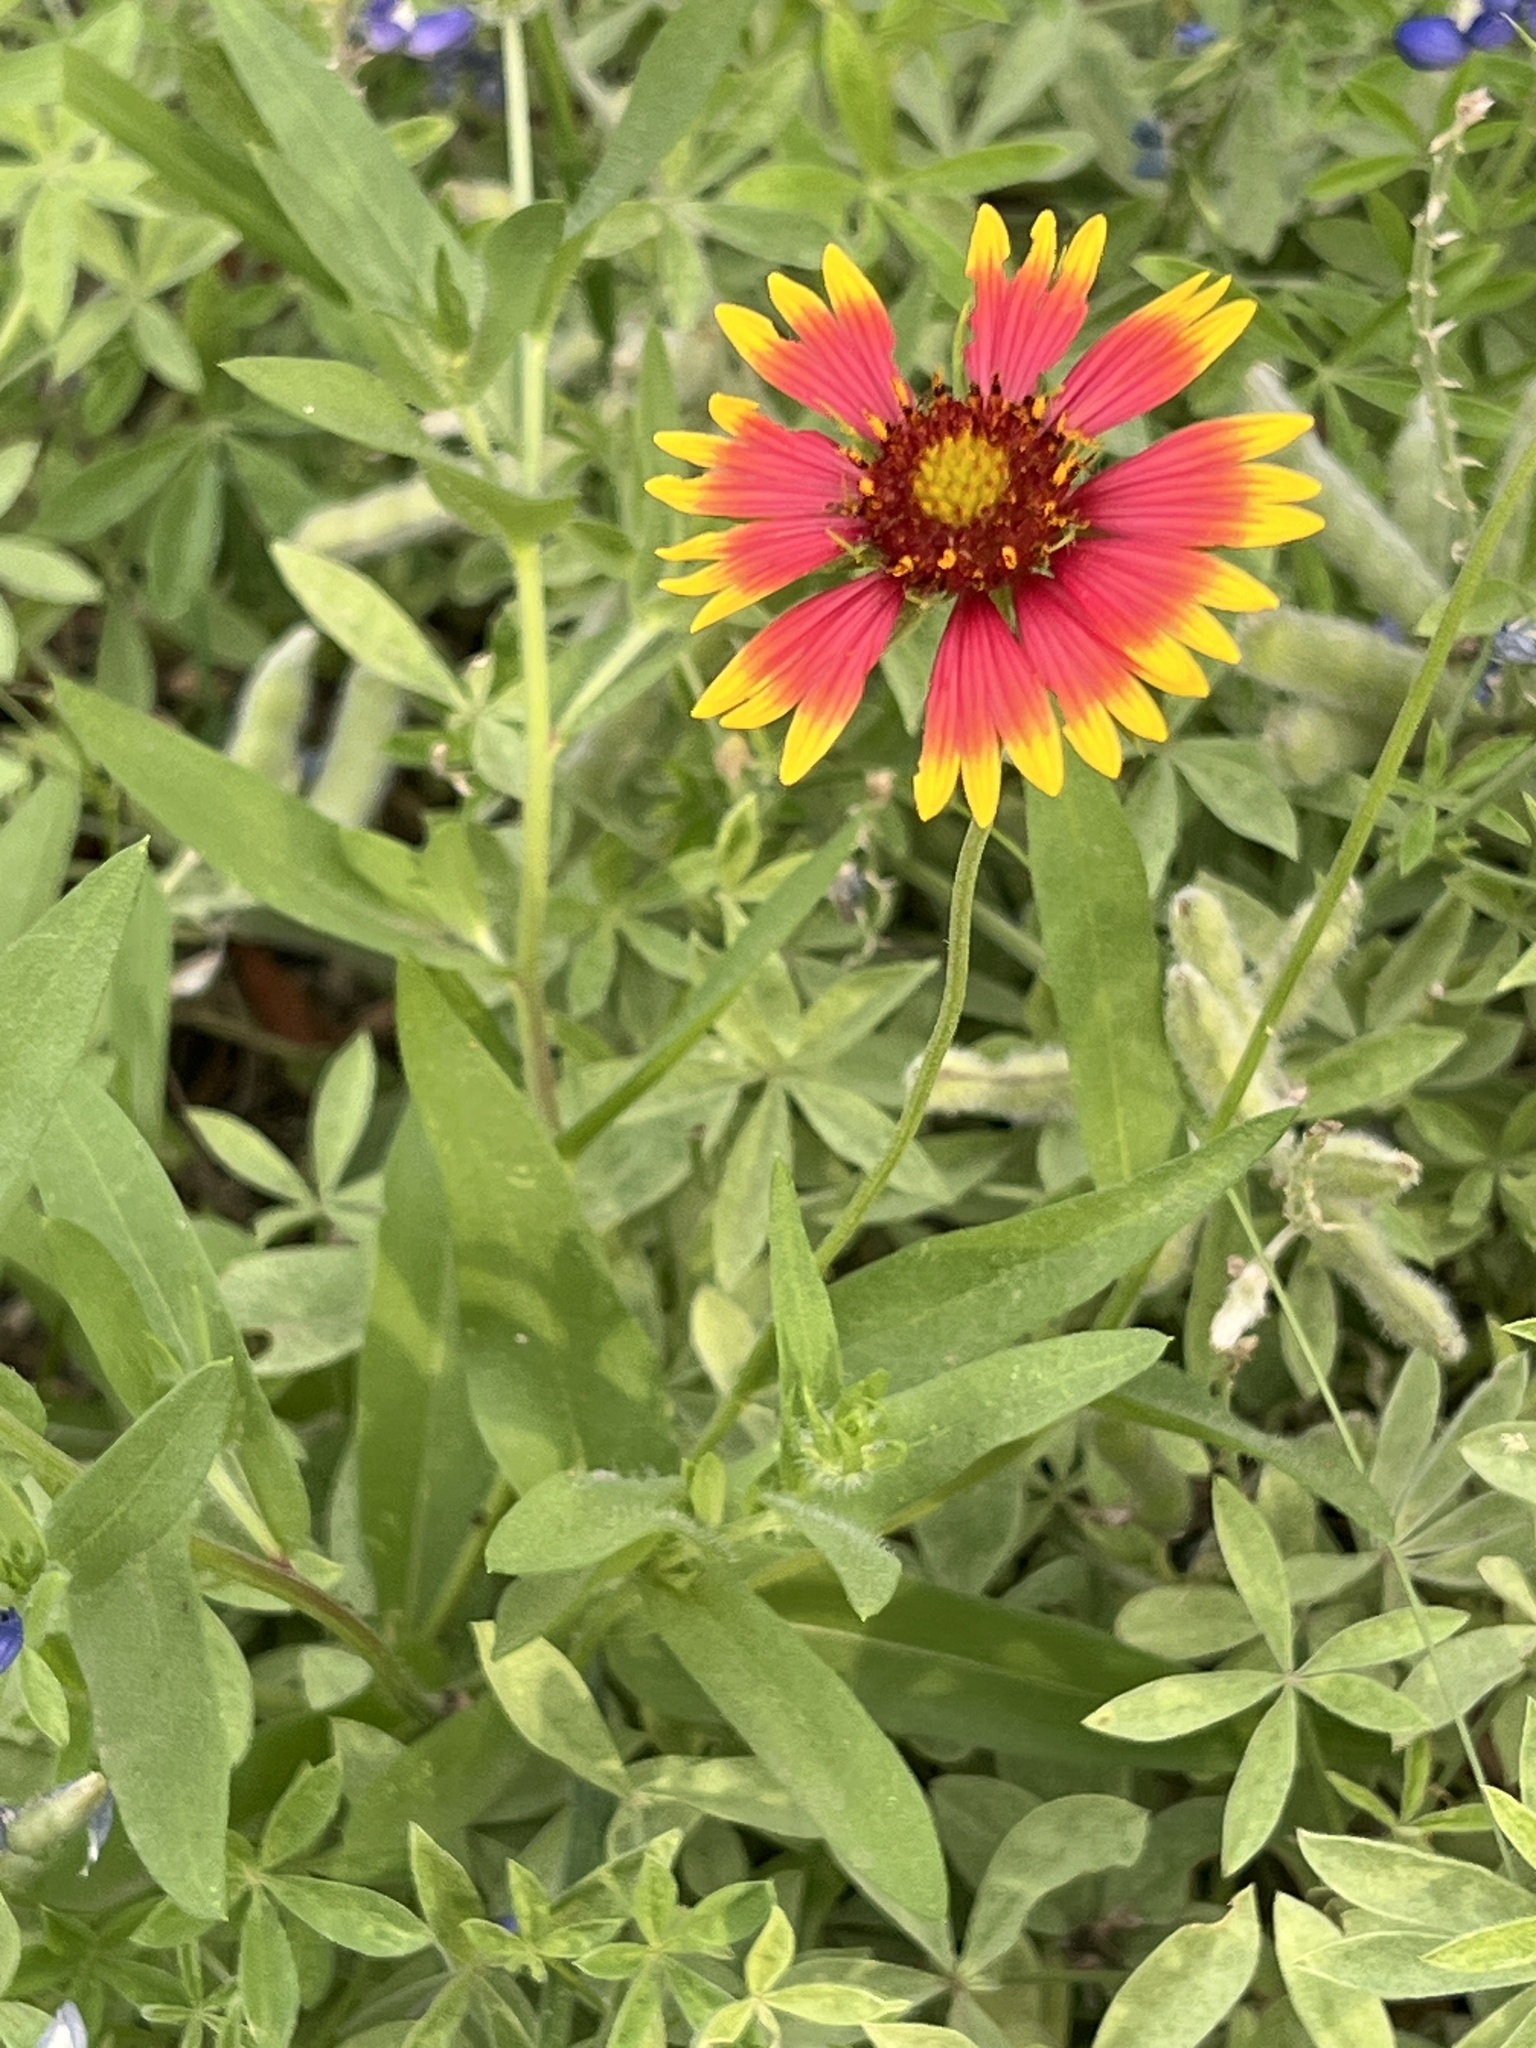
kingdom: Plantae
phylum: Tracheophyta
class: Magnoliopsida
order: Asterales
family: Asteraceae
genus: Gaillardia
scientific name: Gaillardia pulchella
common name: Firewheel
